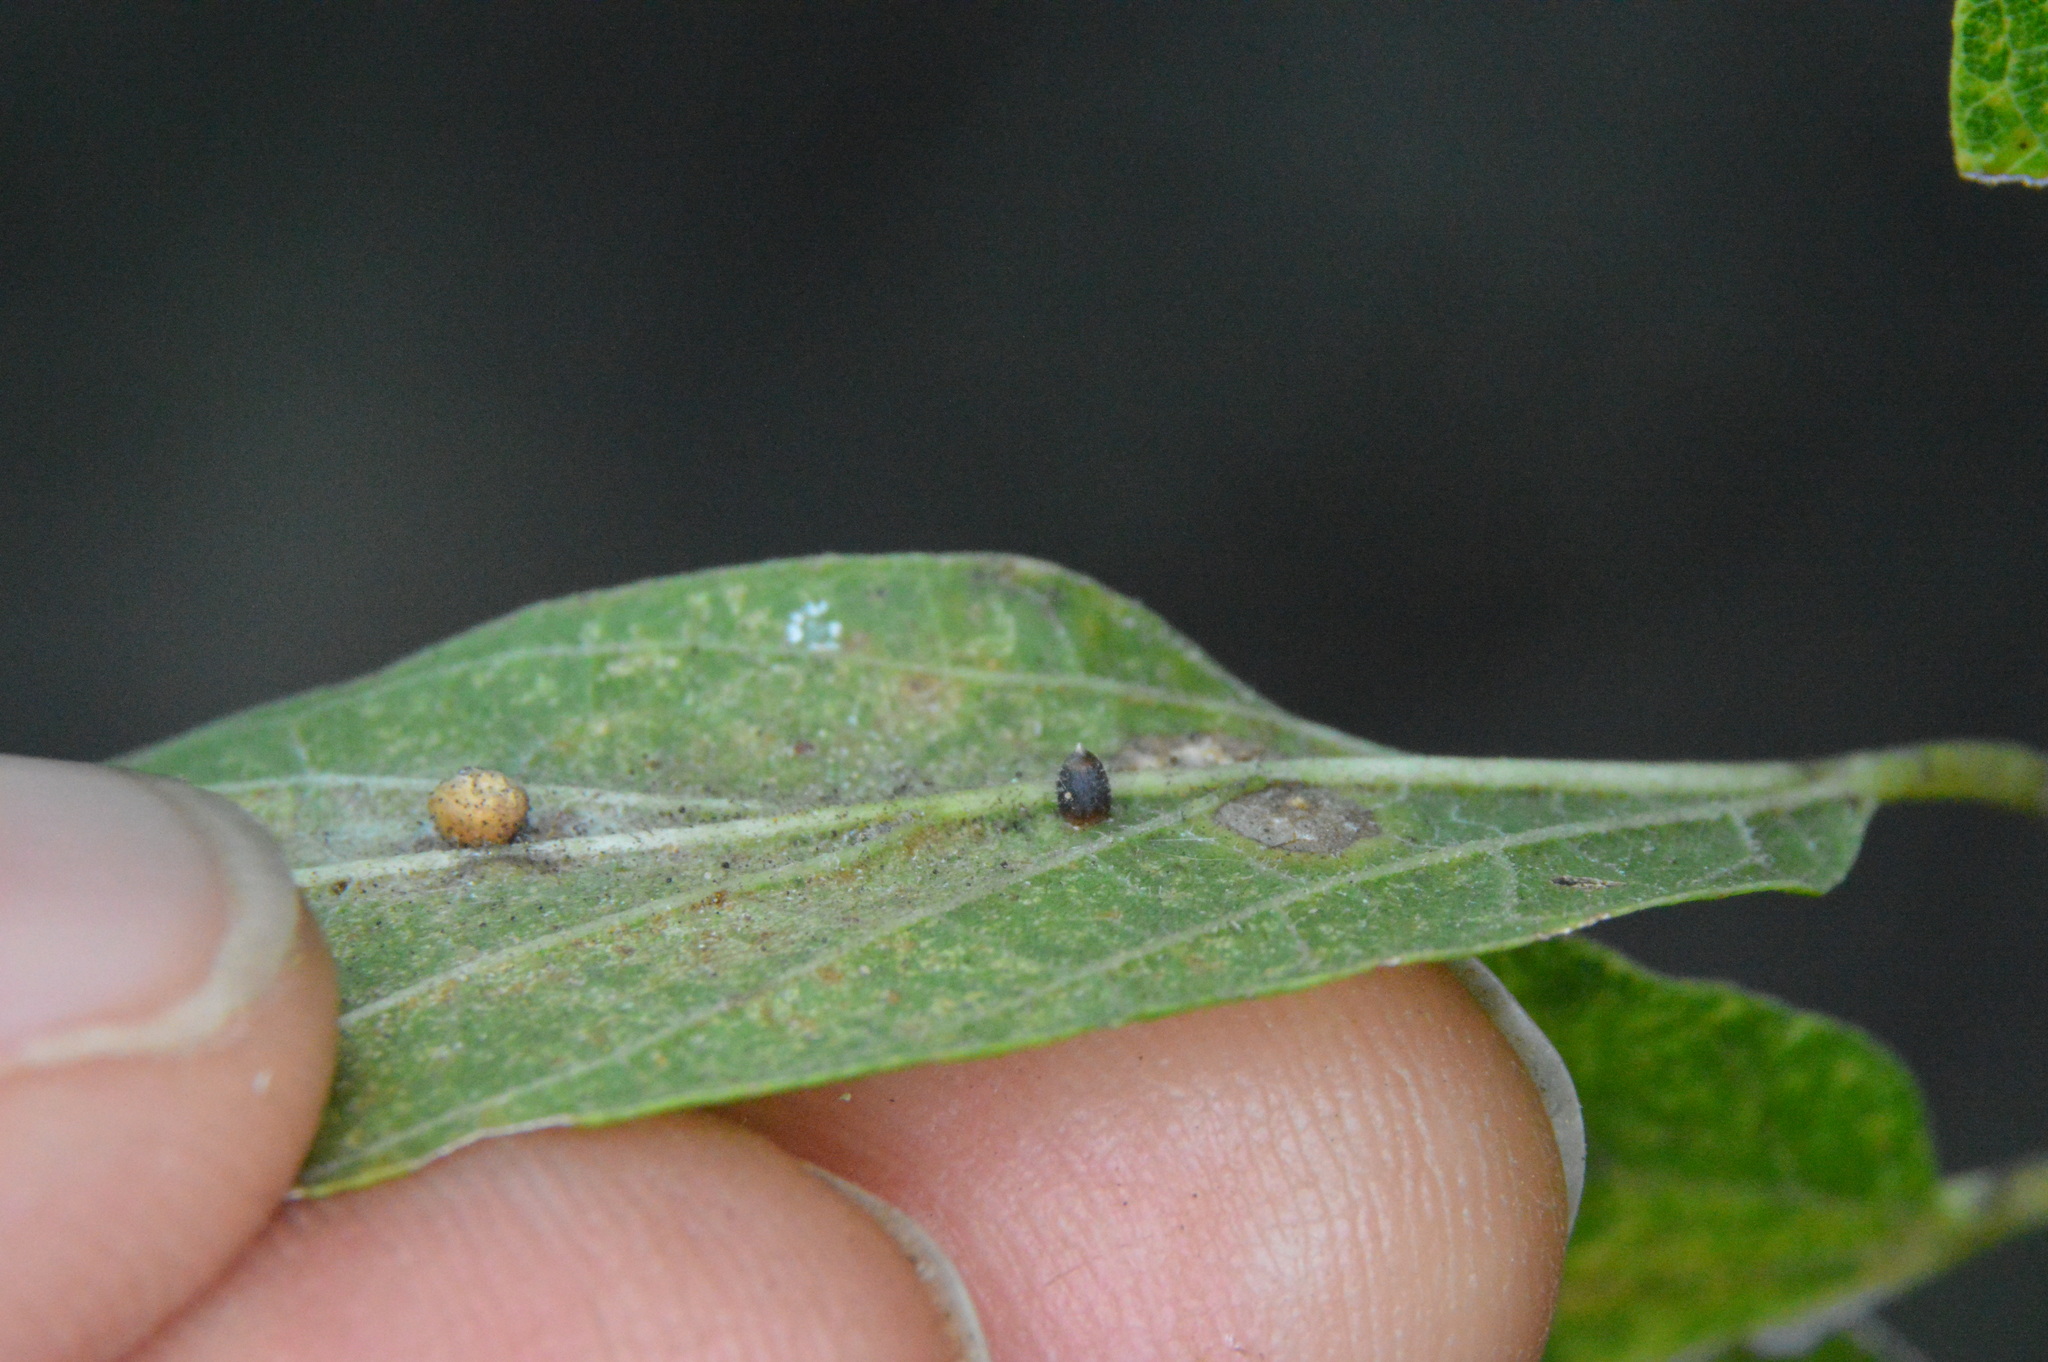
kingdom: Animalia
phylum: Arthropoda
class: Insecta
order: Diptera
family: Cecidomyiidae
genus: Celticecis
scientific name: Celticecis cupiformis
